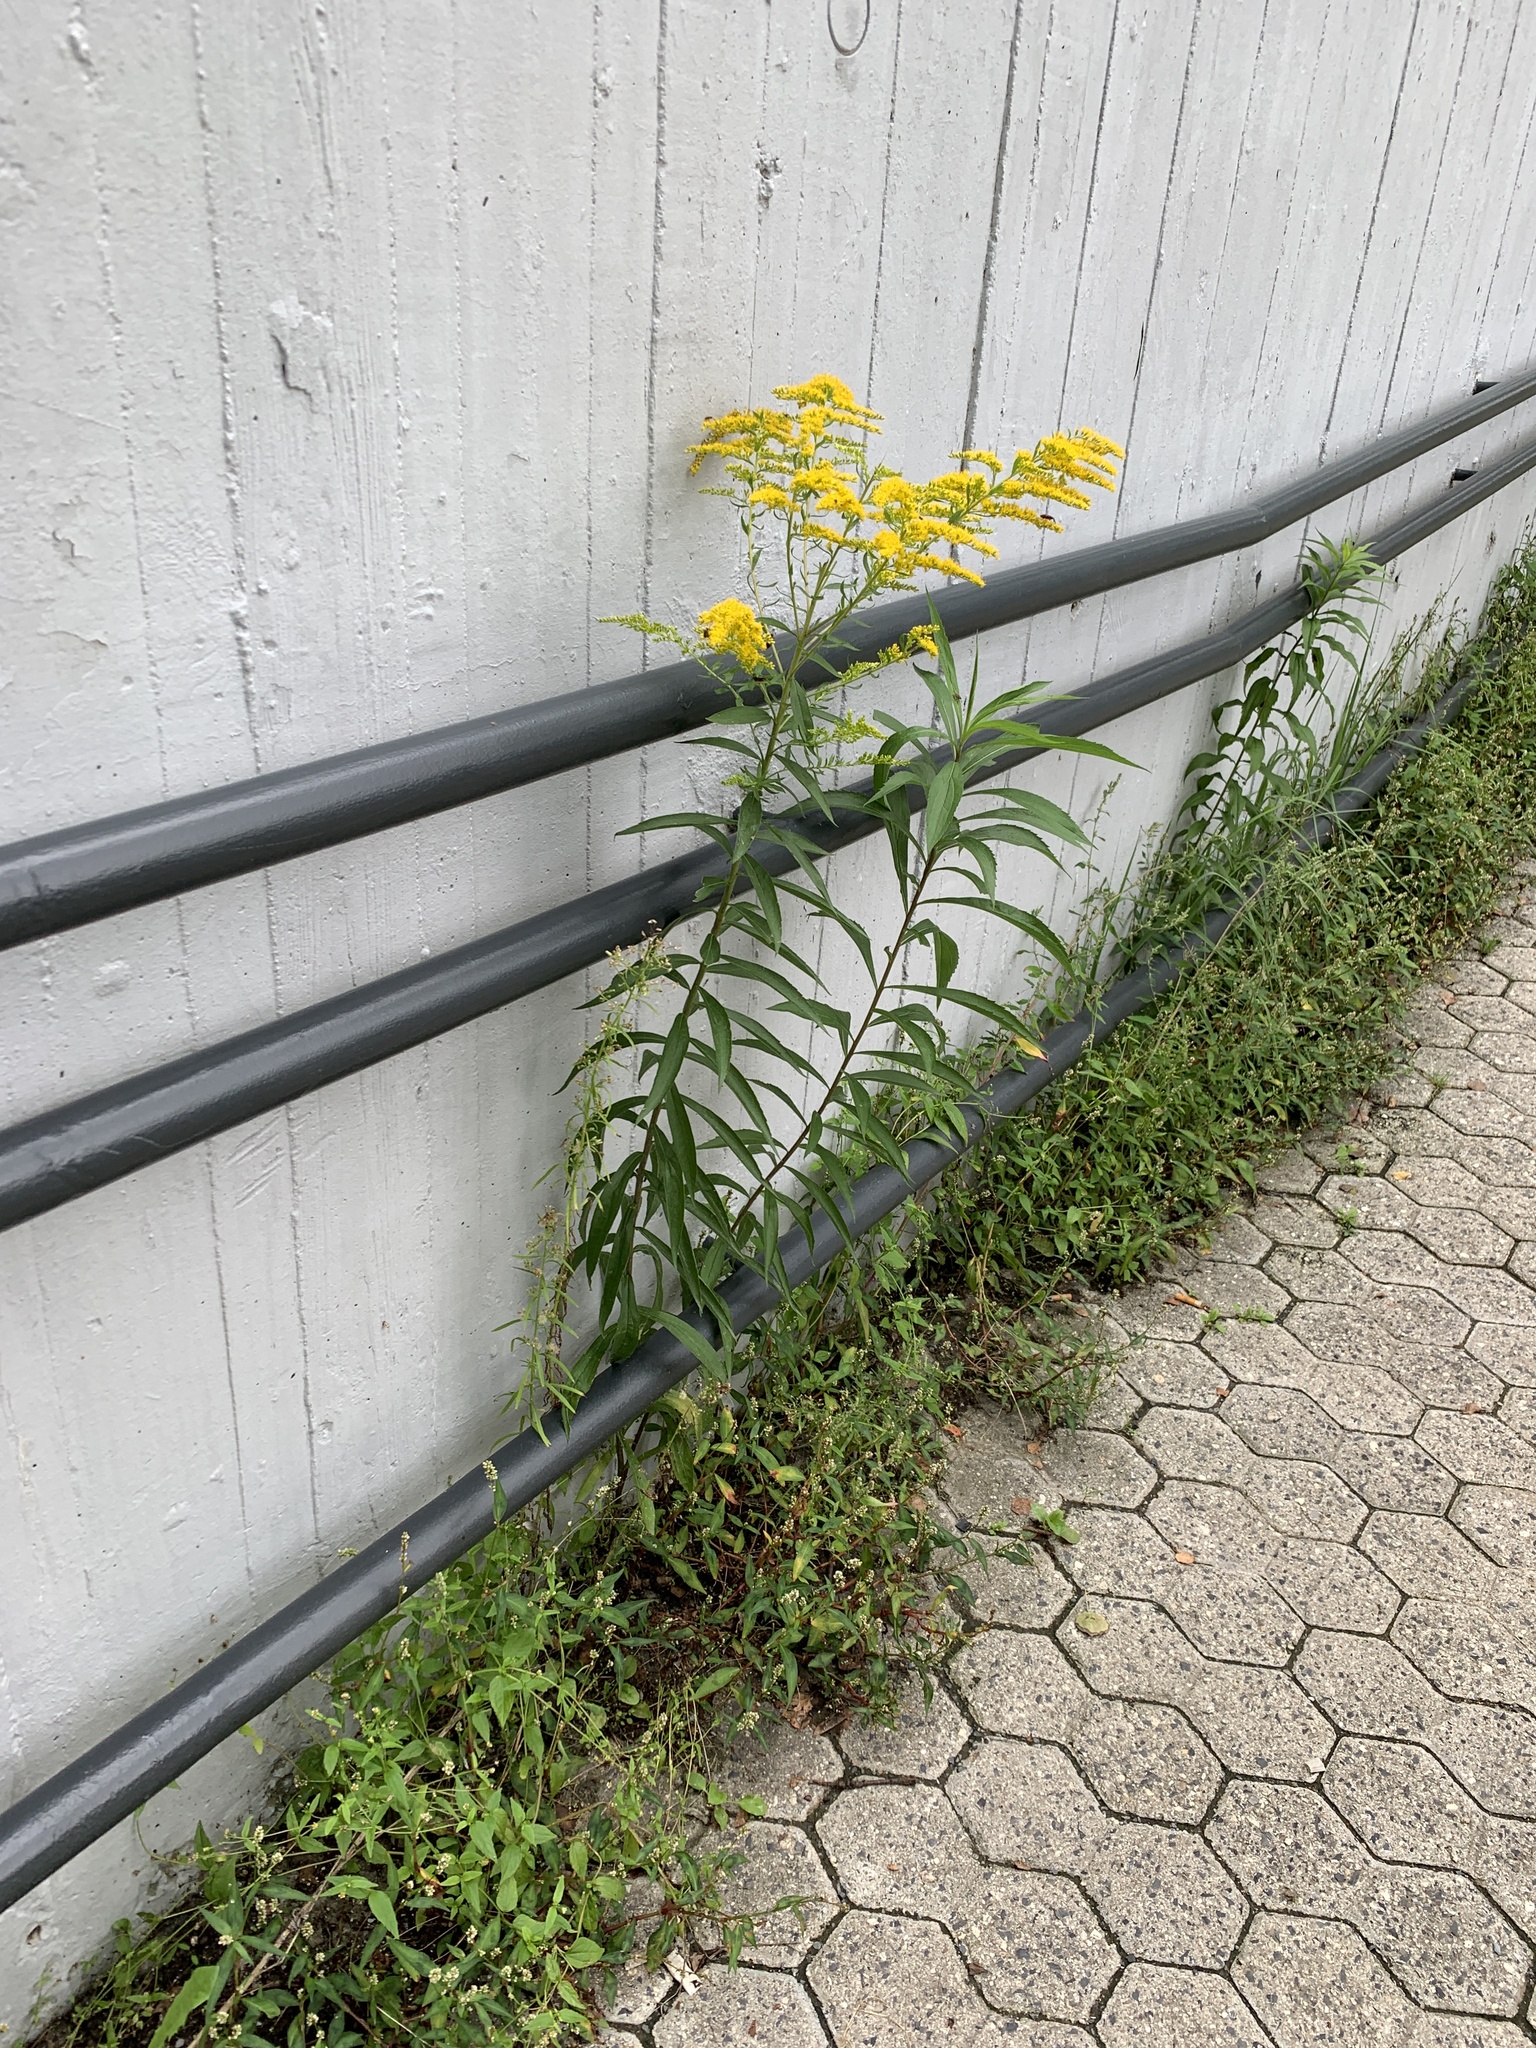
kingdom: Plantae
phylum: Tracheophyta
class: Magnoliopsida
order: Asterales
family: Asteraceae
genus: Solidago
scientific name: Solidago canadensis
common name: Canada goldenrod
